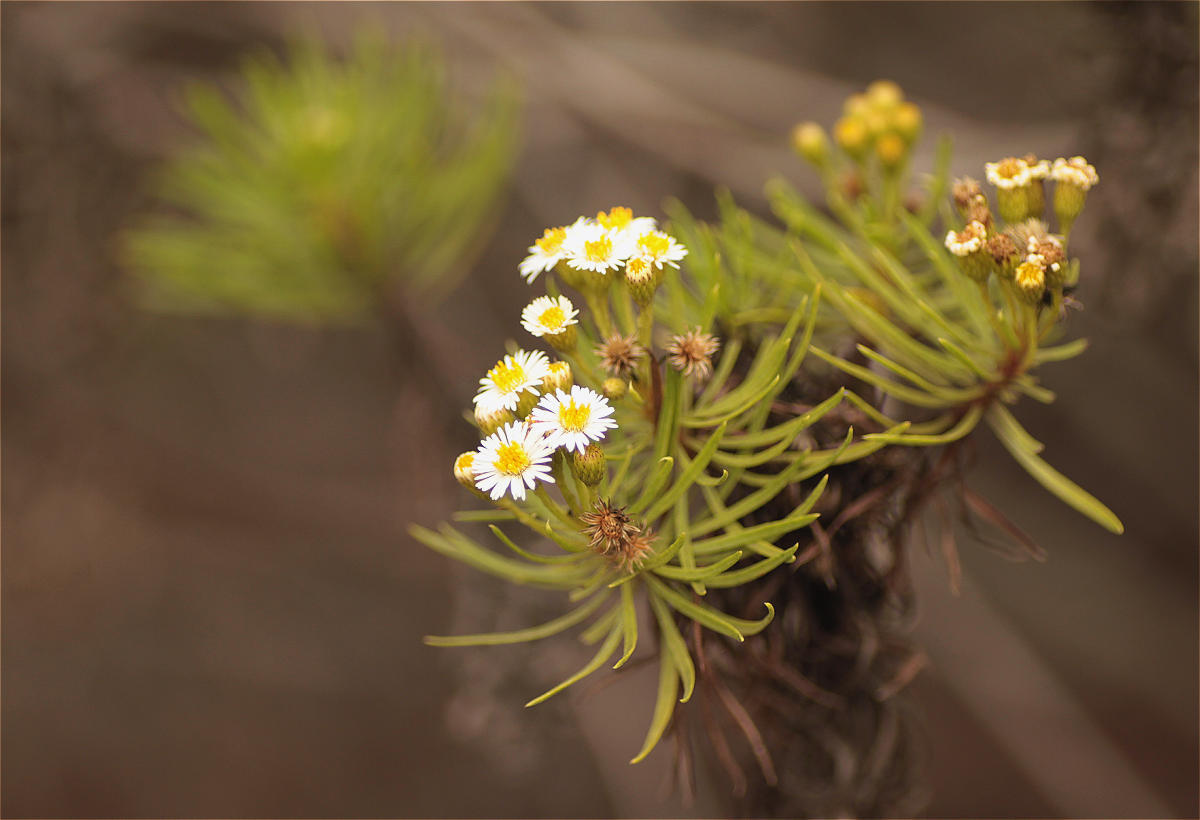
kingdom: Plantae
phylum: Tracheophyta
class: Magnoliopsida
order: Asterales
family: Asteraceae
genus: Erigeron
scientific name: Erigeron tenuifolius
